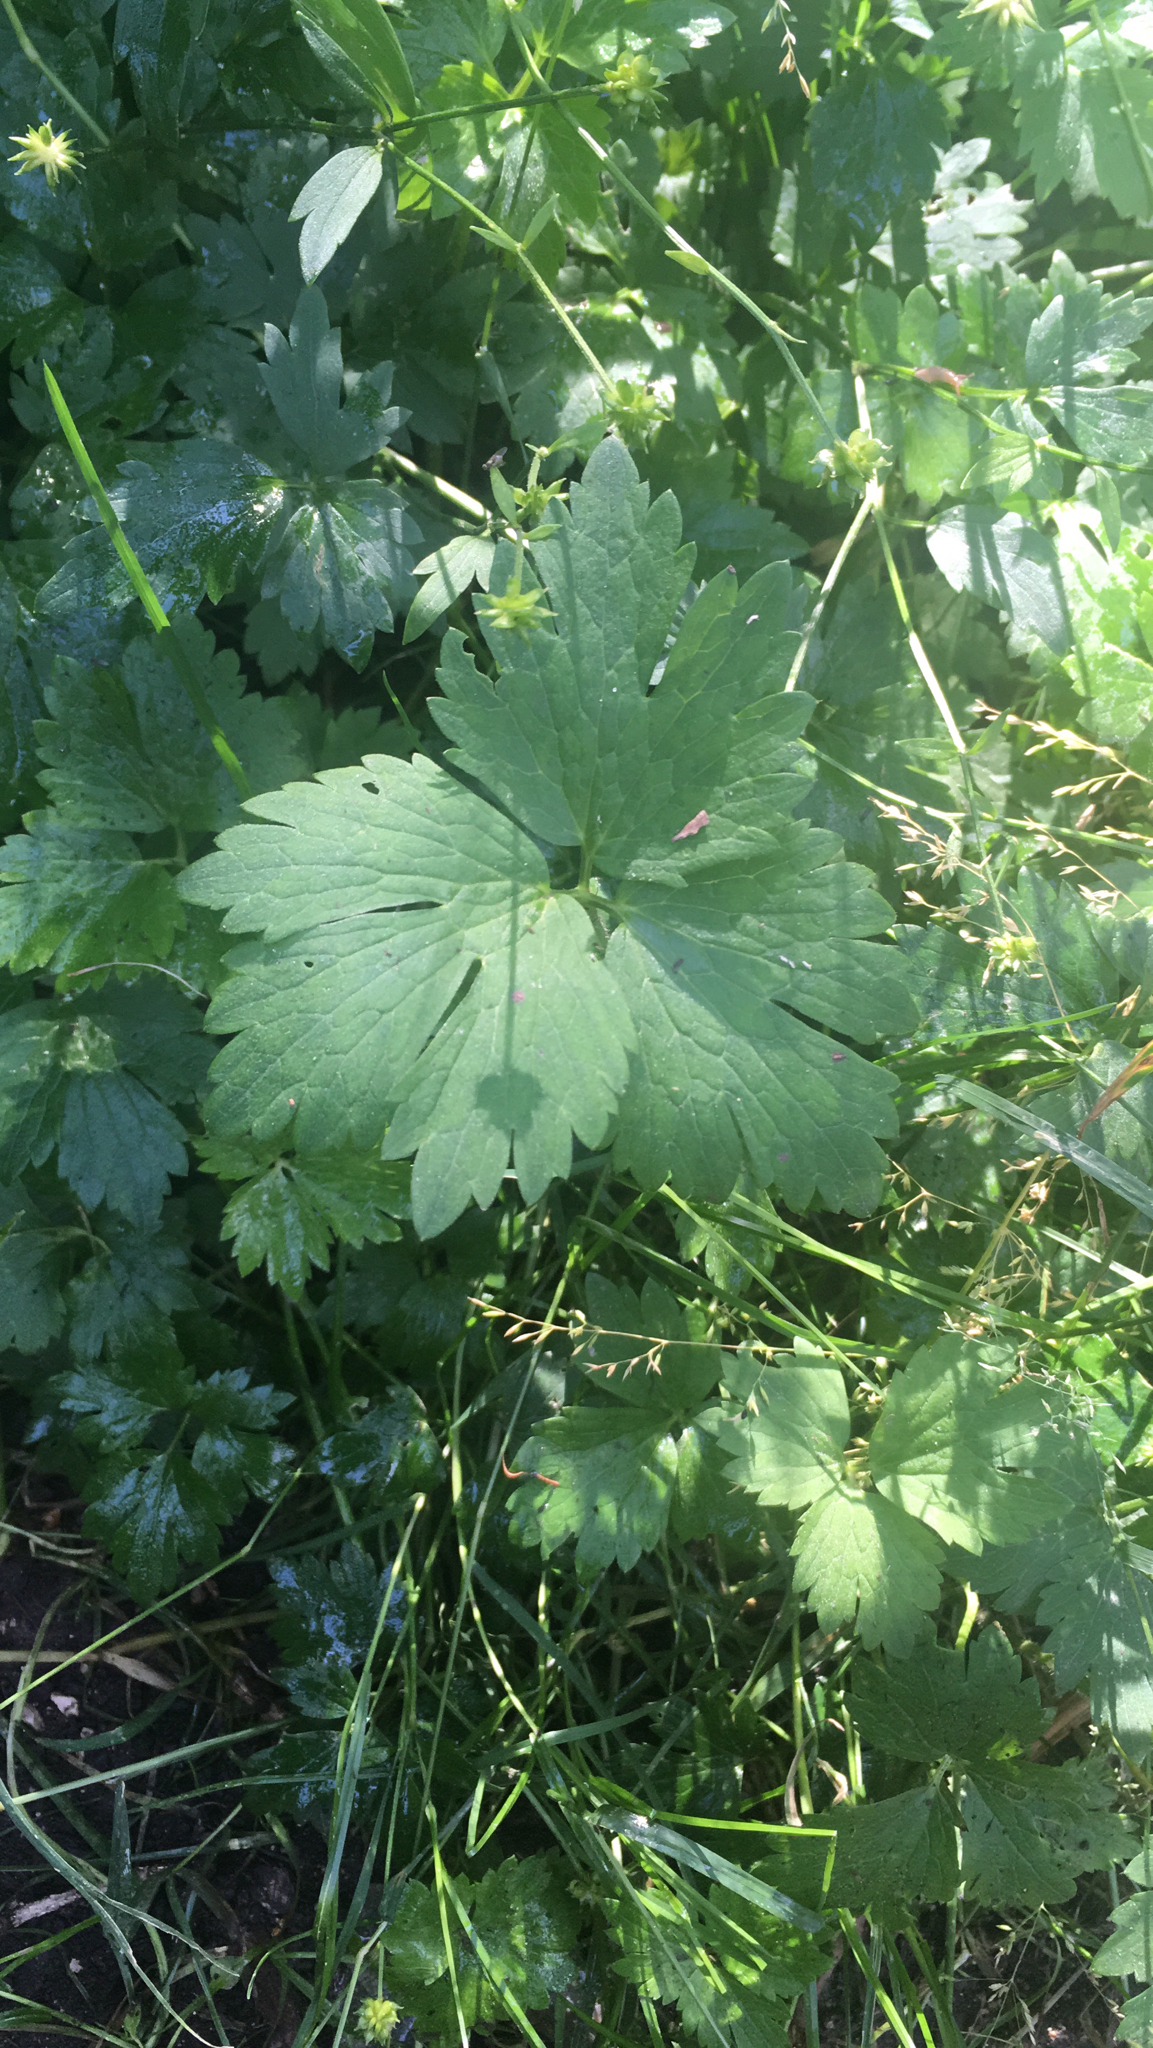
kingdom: Plantae
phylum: Tracheophyta
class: Magnoliopsida
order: Ranunculales
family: Ranunculaceae
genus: Ranunculus
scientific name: Ranunculus repens
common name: Creeping buttercup
